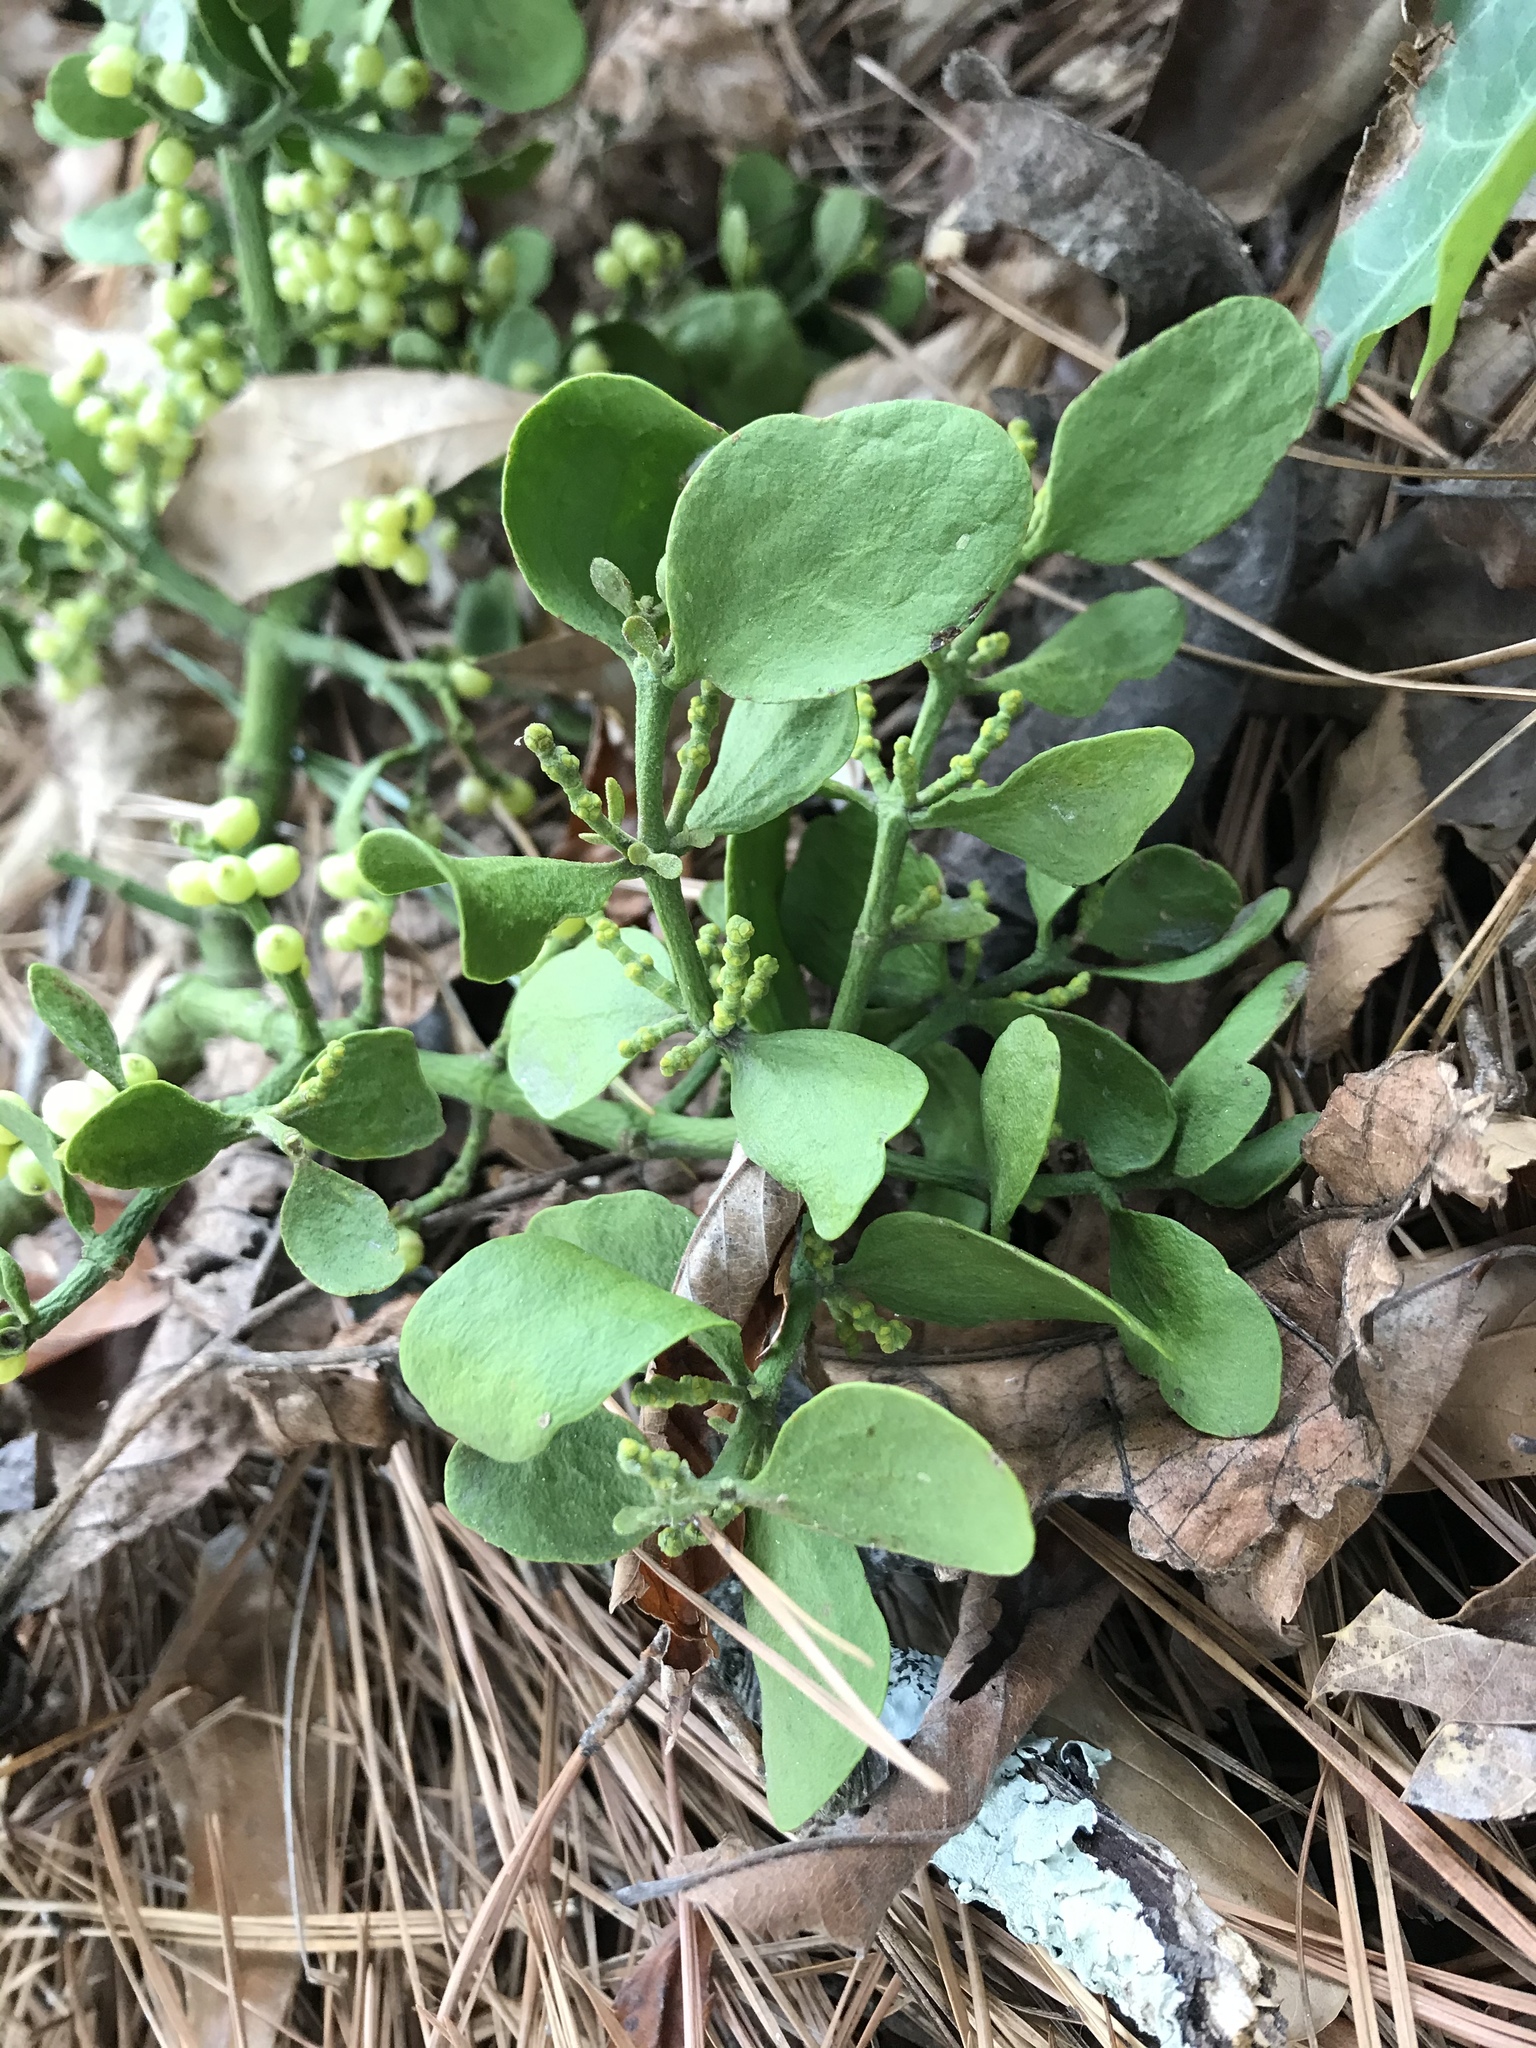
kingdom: Plantae
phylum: Tracheophyta
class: Magnoliopsida
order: Santalales
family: Viscaceae
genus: Phoradendron
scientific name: Phoradendron leucarpum
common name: Pacific mistletoe
